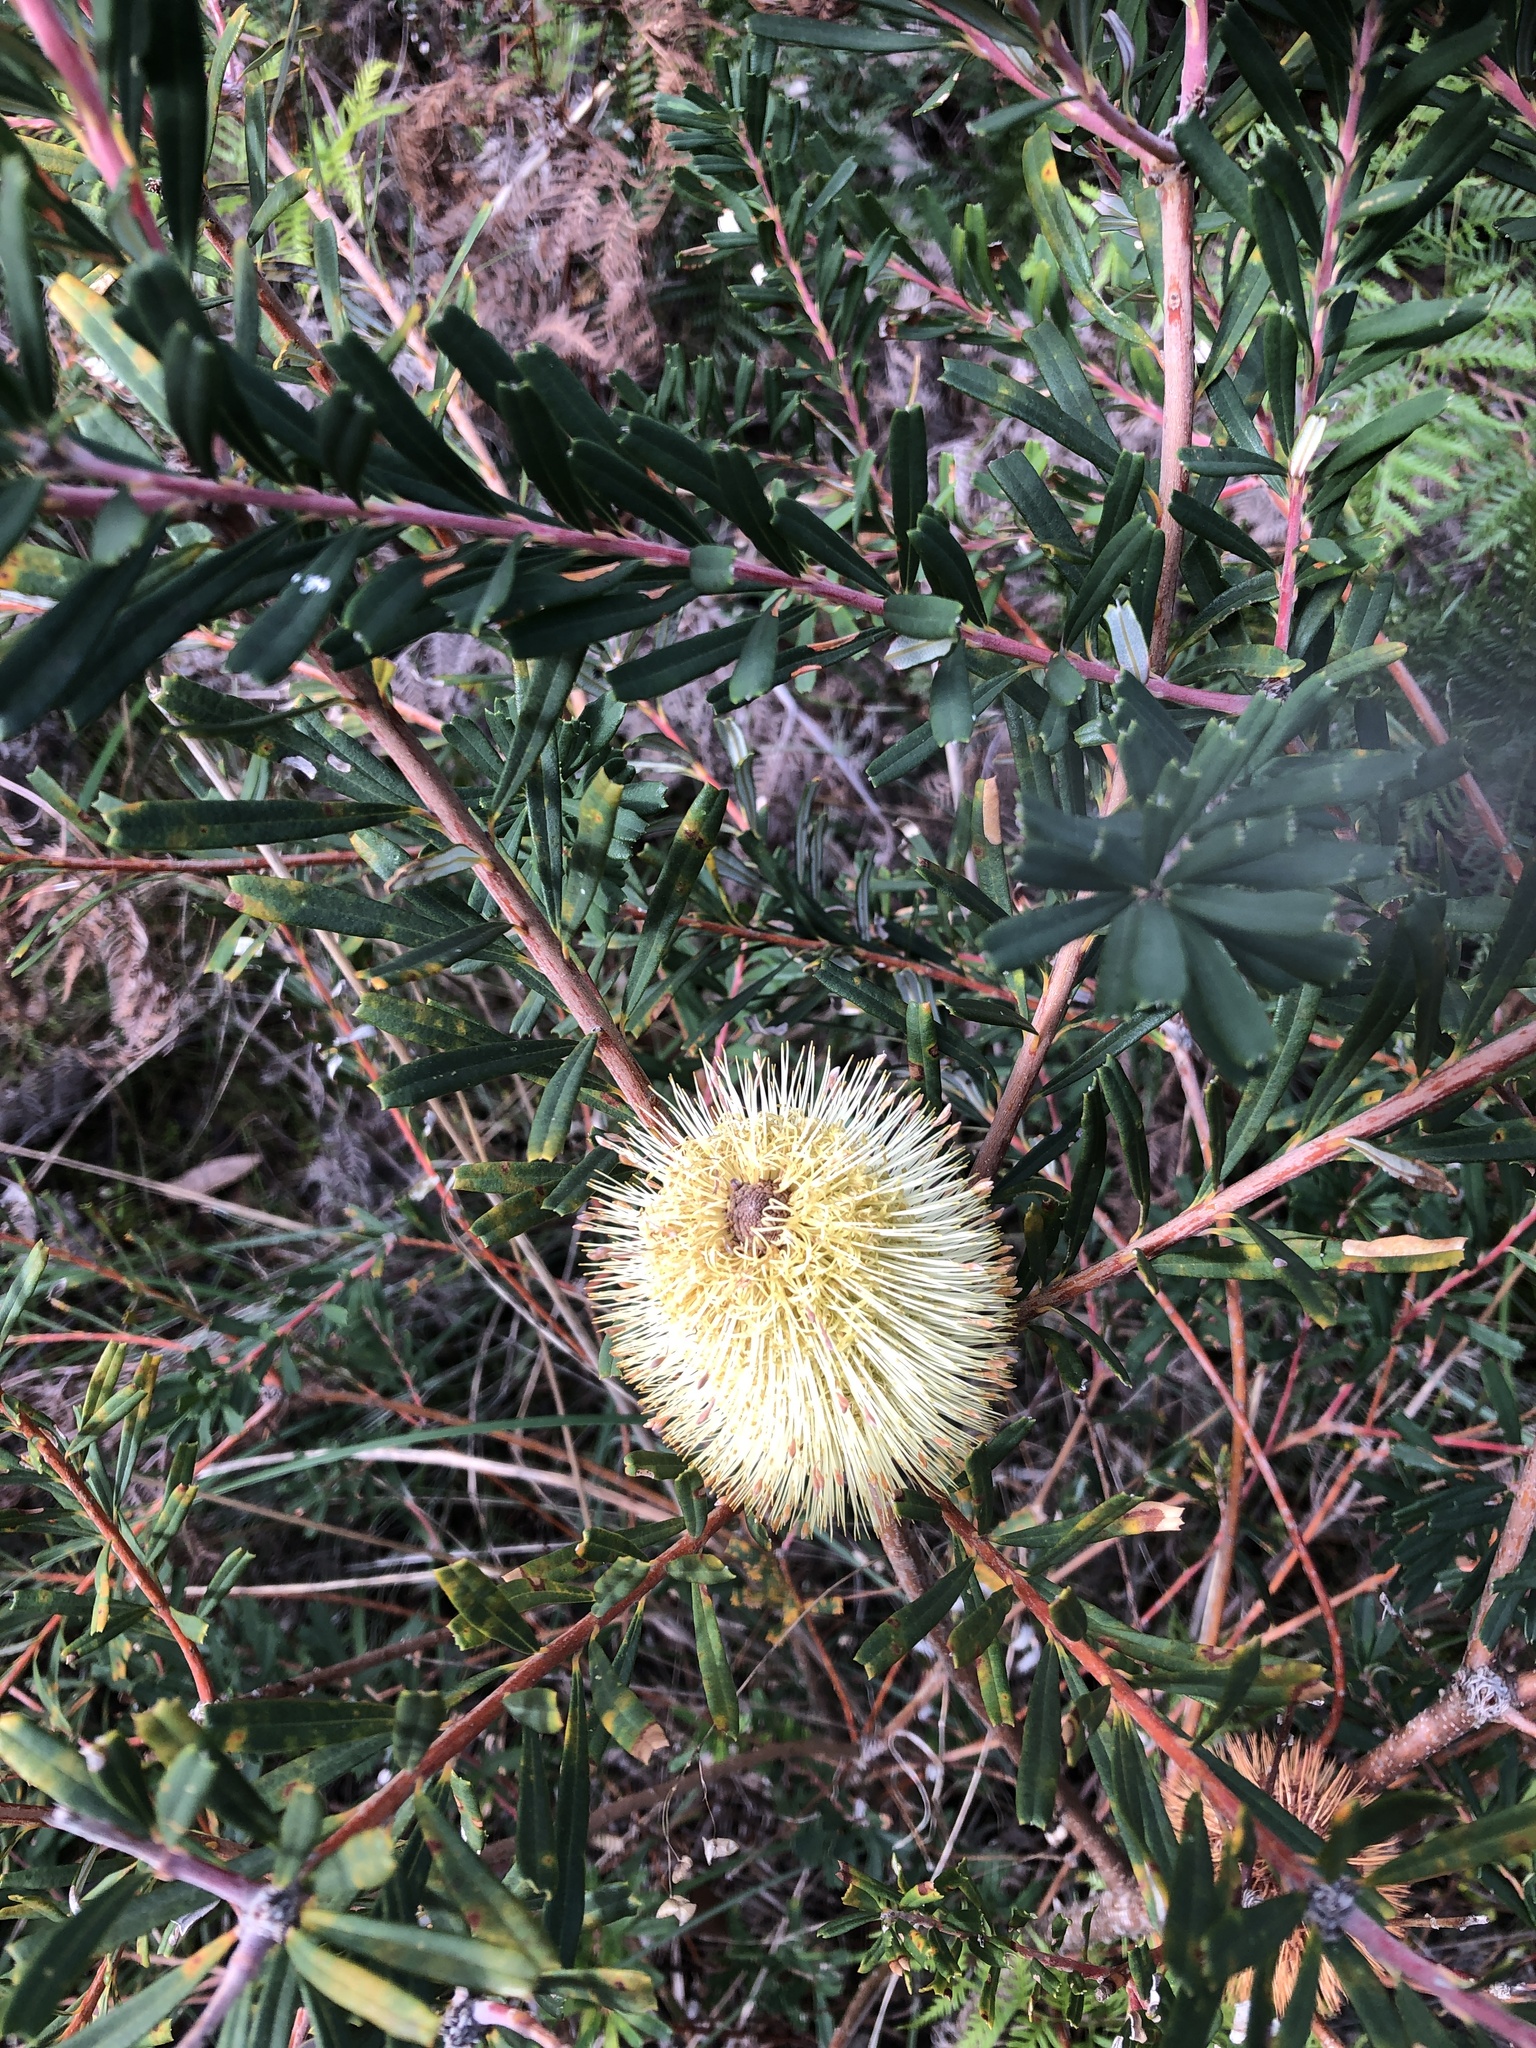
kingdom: Plantae
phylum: Tracheophyta
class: Magnoliopsida
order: Proteales
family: Proteaceae
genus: Banksia
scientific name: Banksia marginata
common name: Silver banksia
